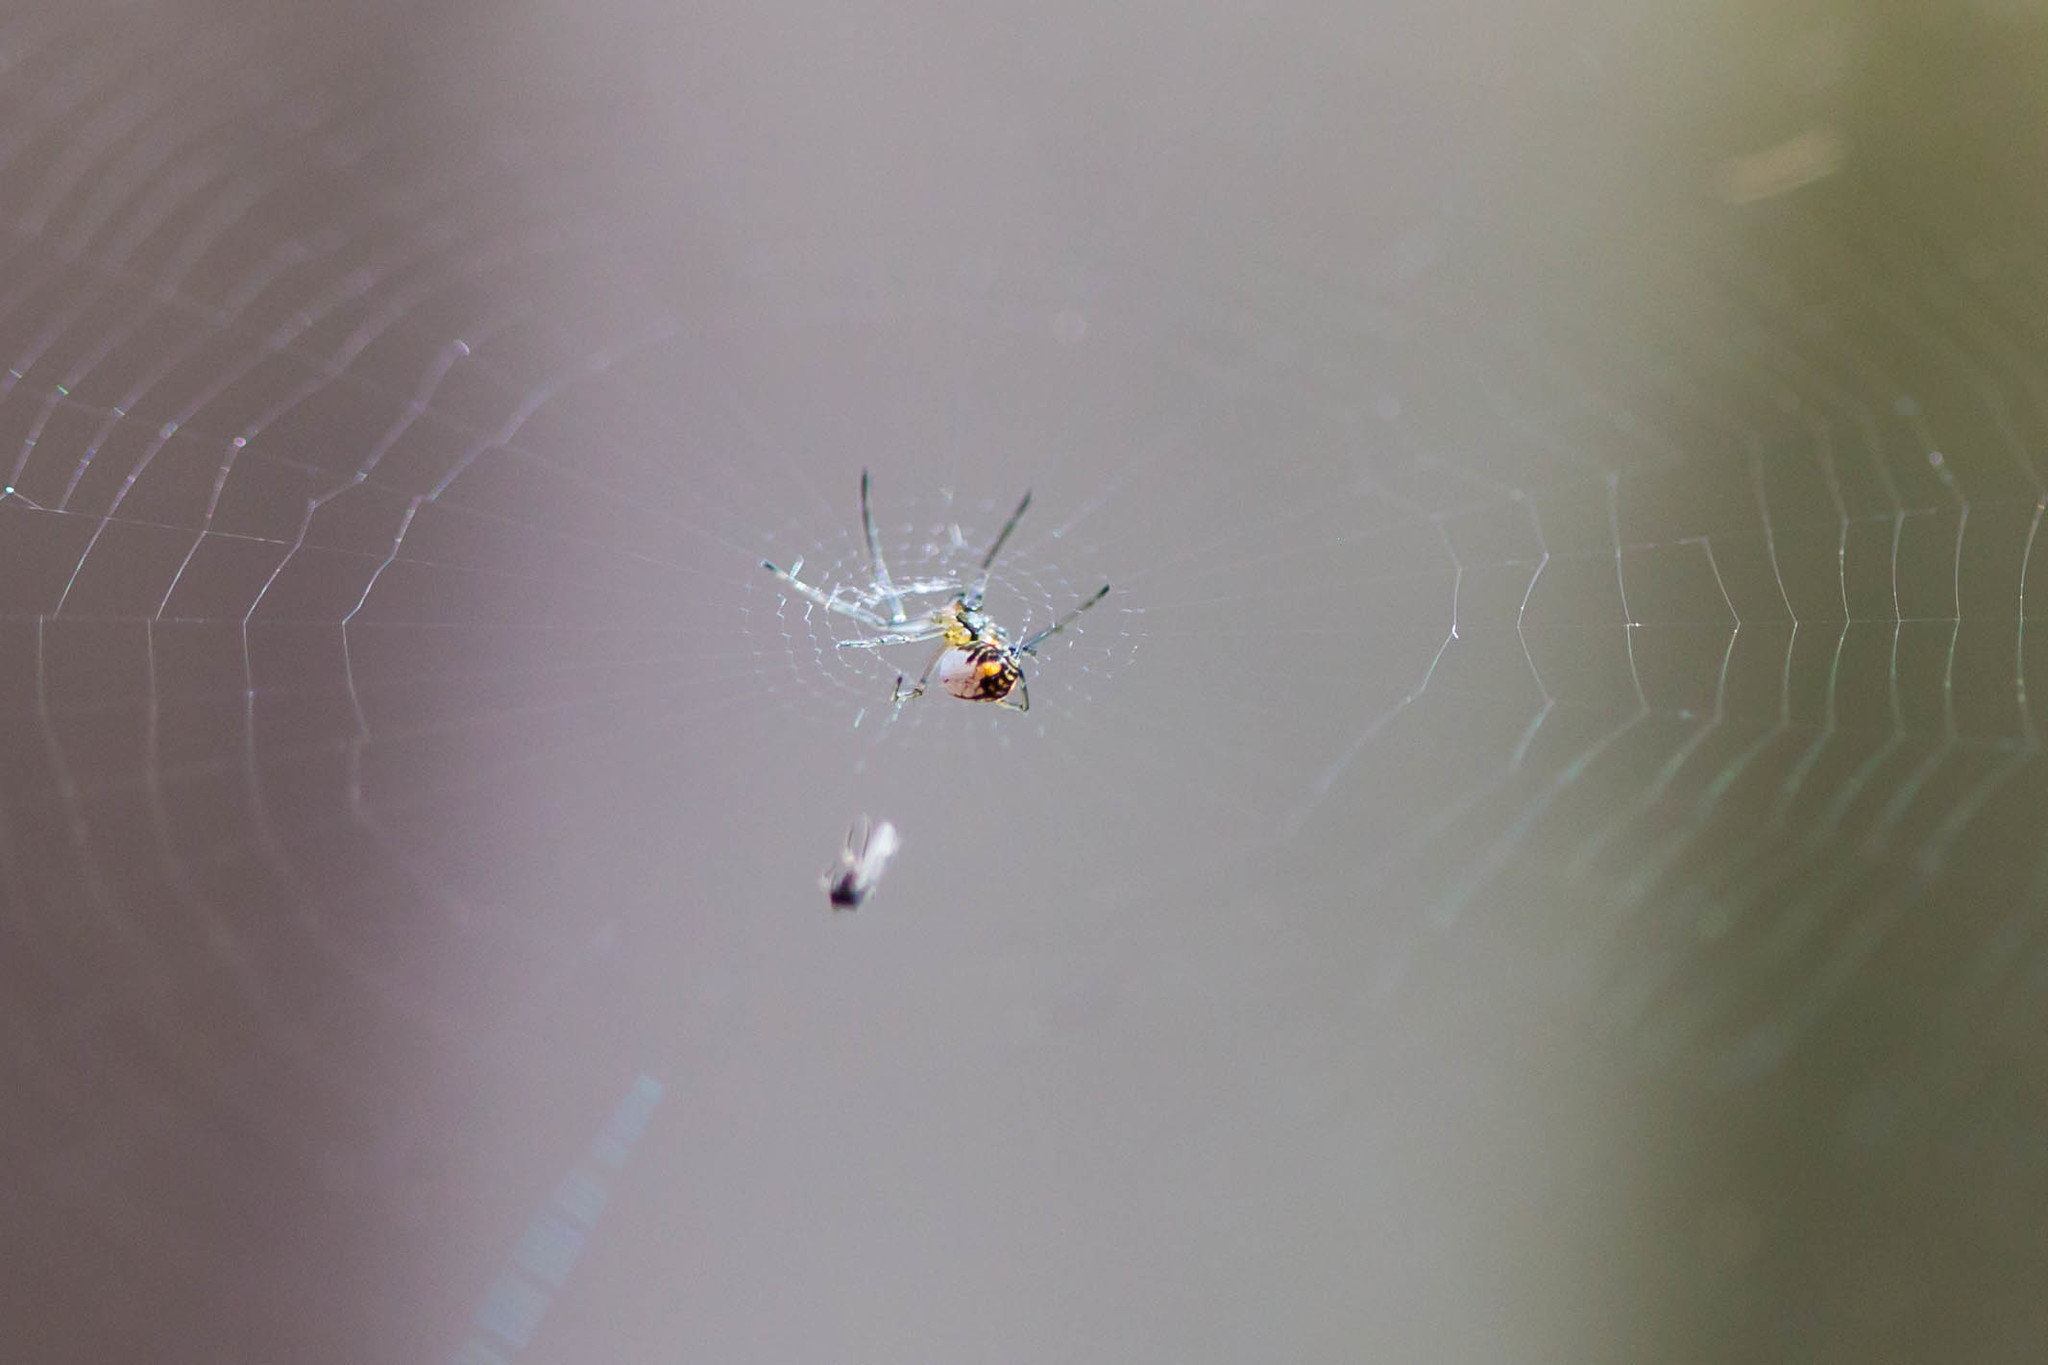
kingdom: Animalia
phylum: Arthropoda
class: Arachnida
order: Araneae
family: Tetragnathidae
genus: Leucauge
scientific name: Leucauge venusta
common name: Longjawed orb weavers
